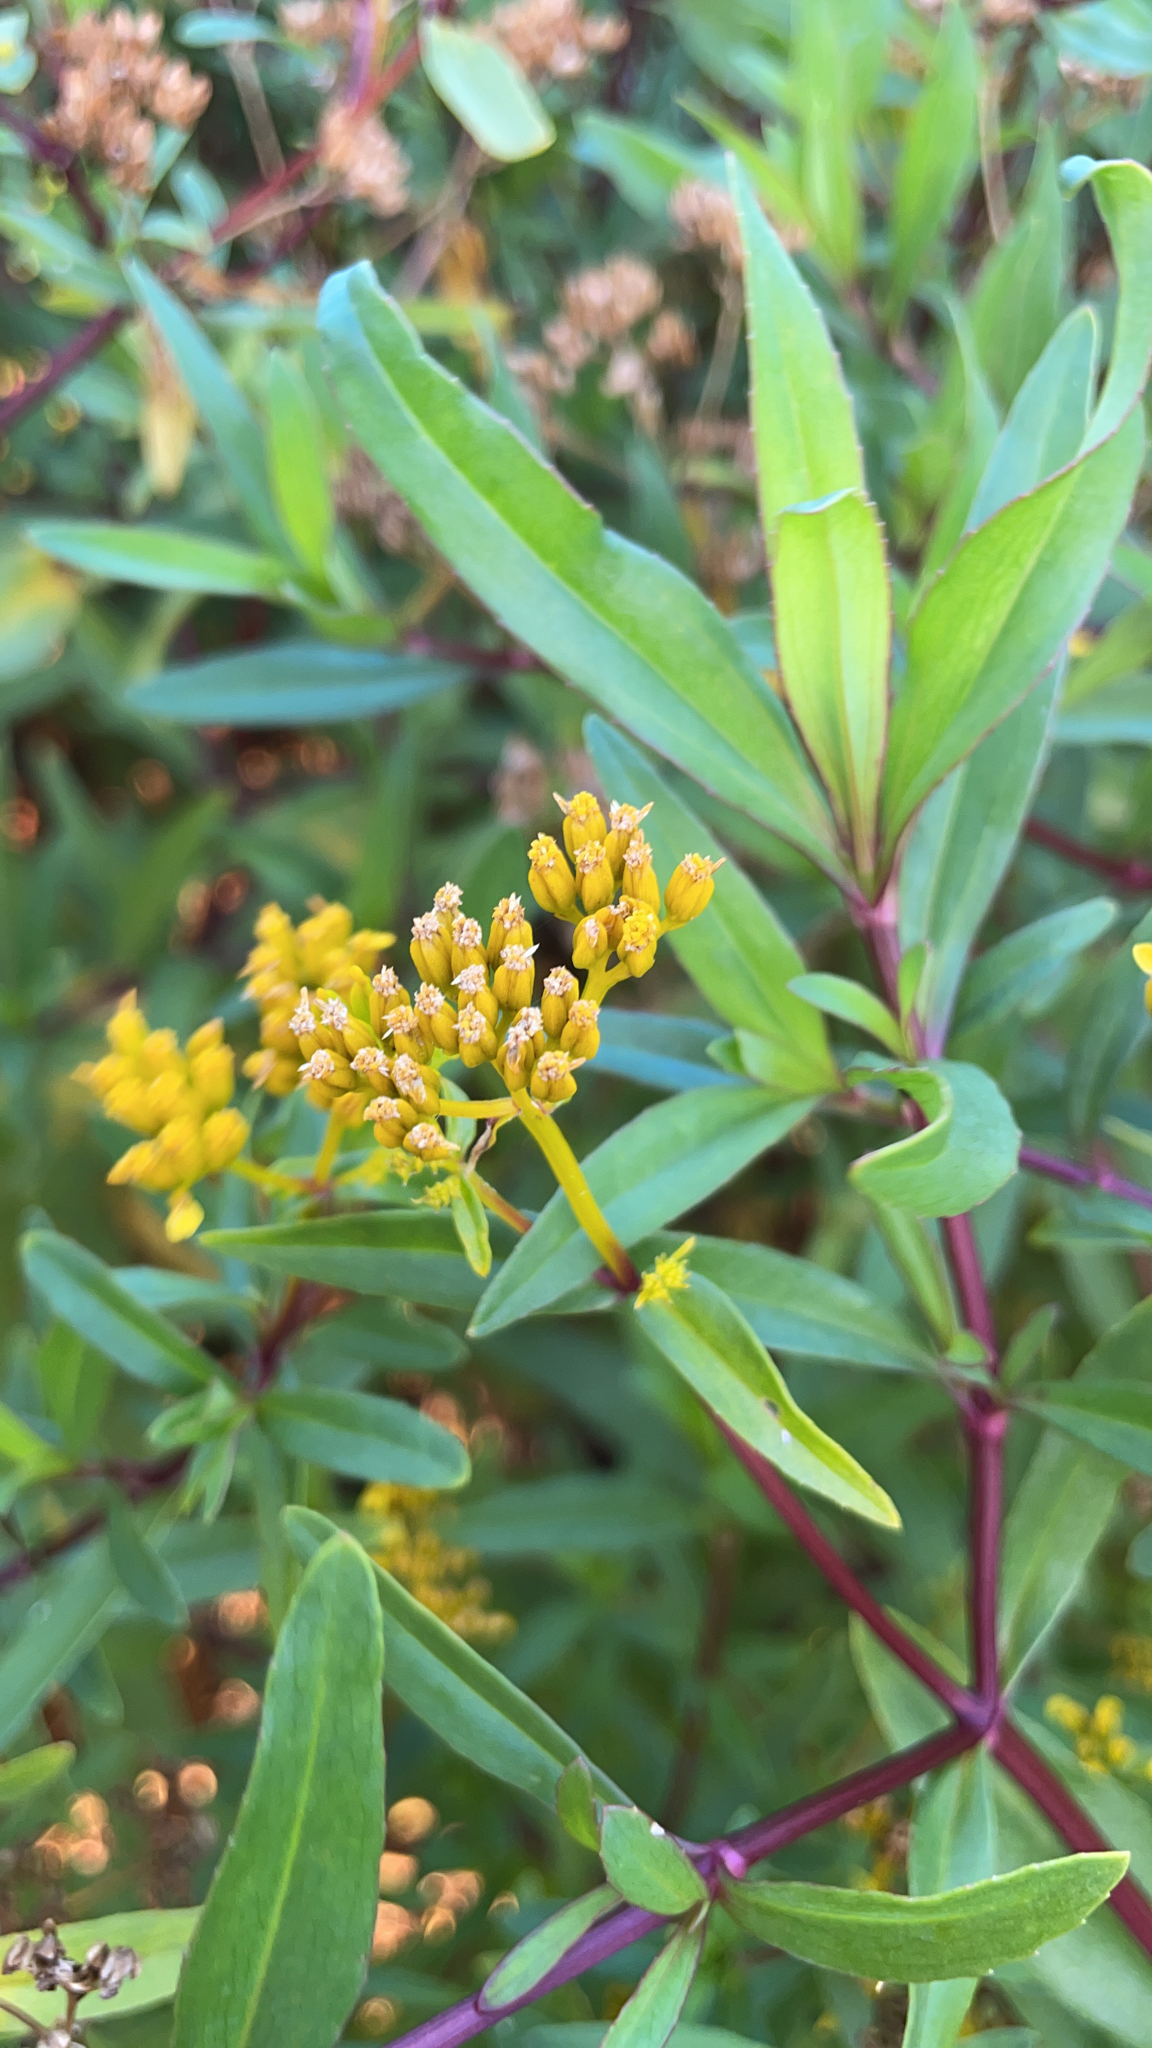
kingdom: Plantae
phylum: Tracheophyta
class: Magnoliopsida
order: Asterales
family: Asteraceae
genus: Flaveria
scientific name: Flaveria linearis
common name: Yellowtop
